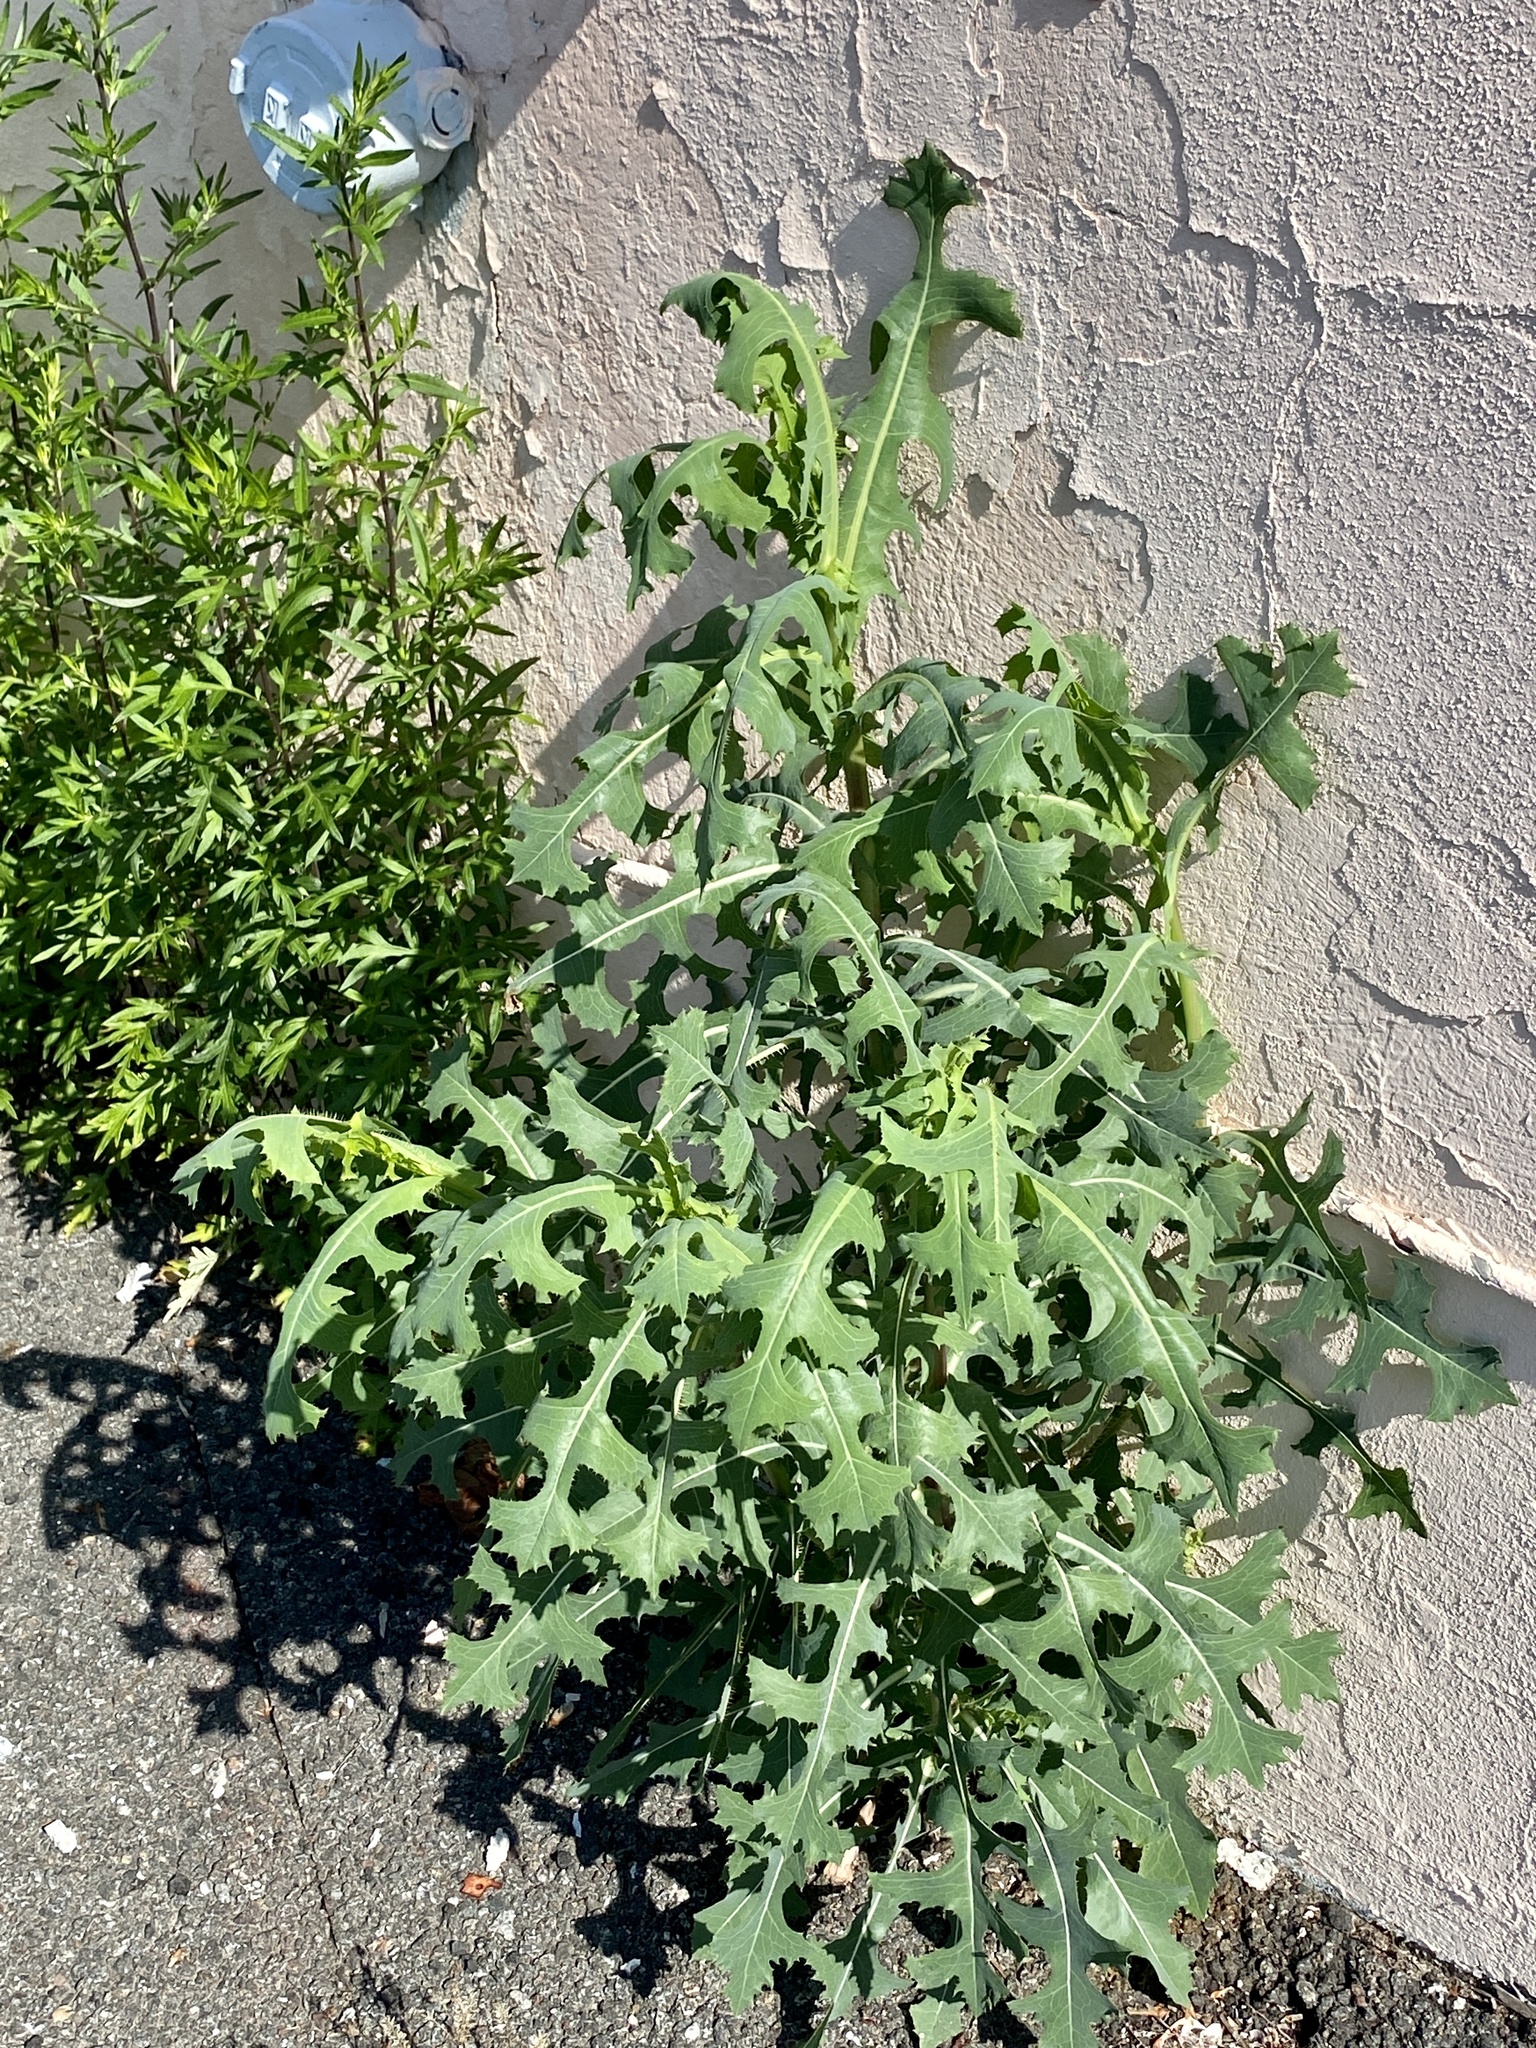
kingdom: Plantae
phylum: Tracheophyta
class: Magnoliopsida
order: Asterales
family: Asteraceae
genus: Lactuca
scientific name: Lactuca serriola
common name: Prickly lettuce
